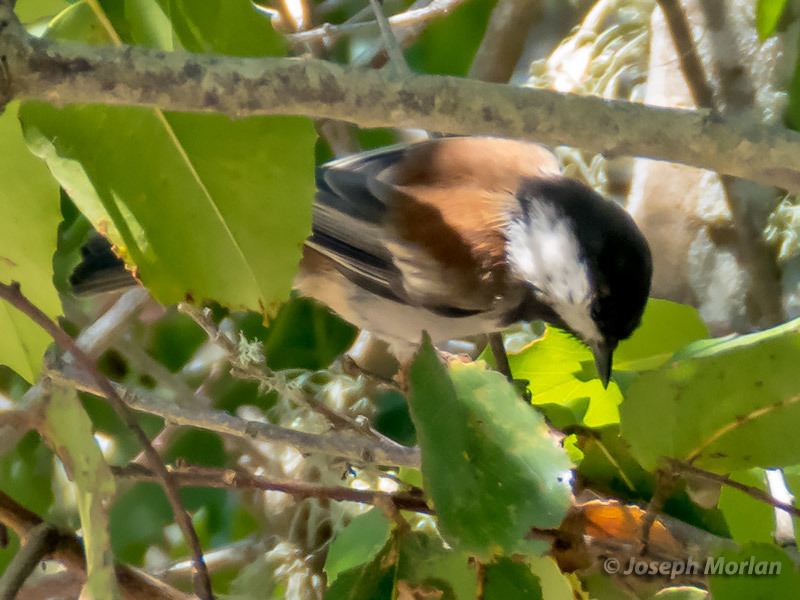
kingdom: Animalia
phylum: Chordata
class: Aves
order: Passeriformes
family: Paridae
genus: Poecile
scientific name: Poecile rufescens
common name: Chestnut-backed chickadee
